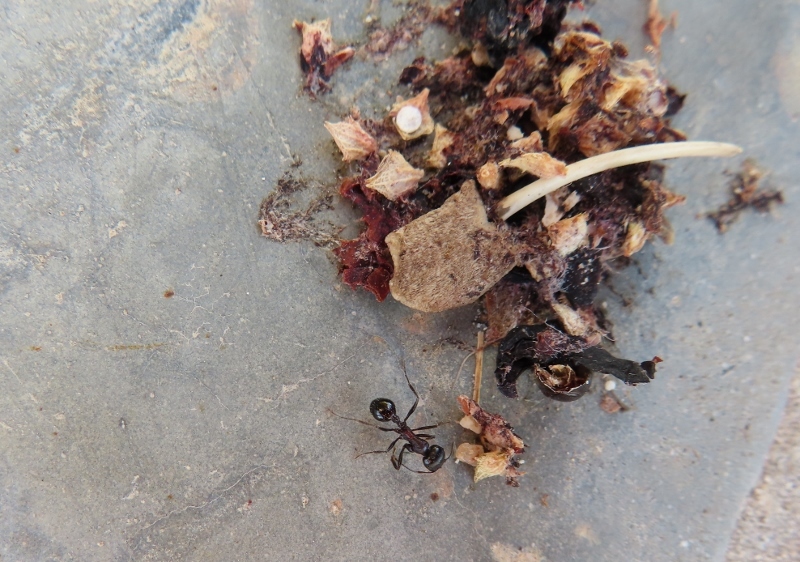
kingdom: Animalia
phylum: Arthropoda
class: Insecta
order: Hymenoptera
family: Formicidae
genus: Messor
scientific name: Messor capensis
